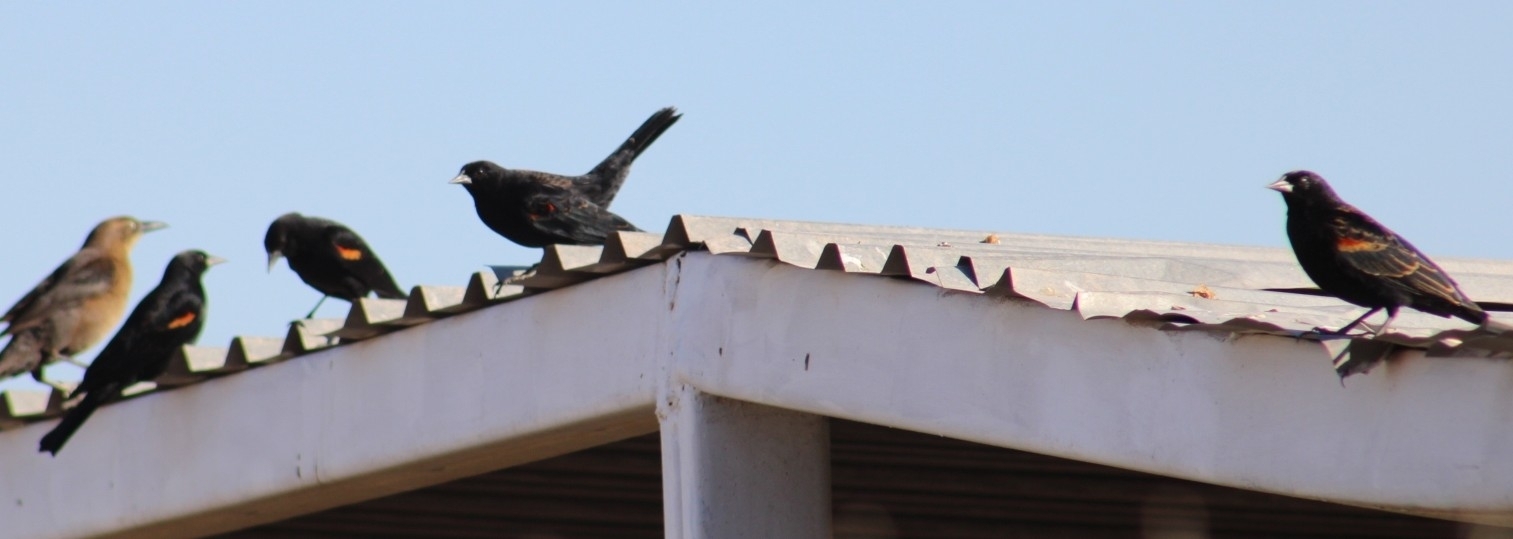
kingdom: Animalia
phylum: Chordata
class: Aves
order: Passeriformes
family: Icteridae
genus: Agelaius
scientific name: Agelaius phoeniceus
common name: Red-winged blackbird
